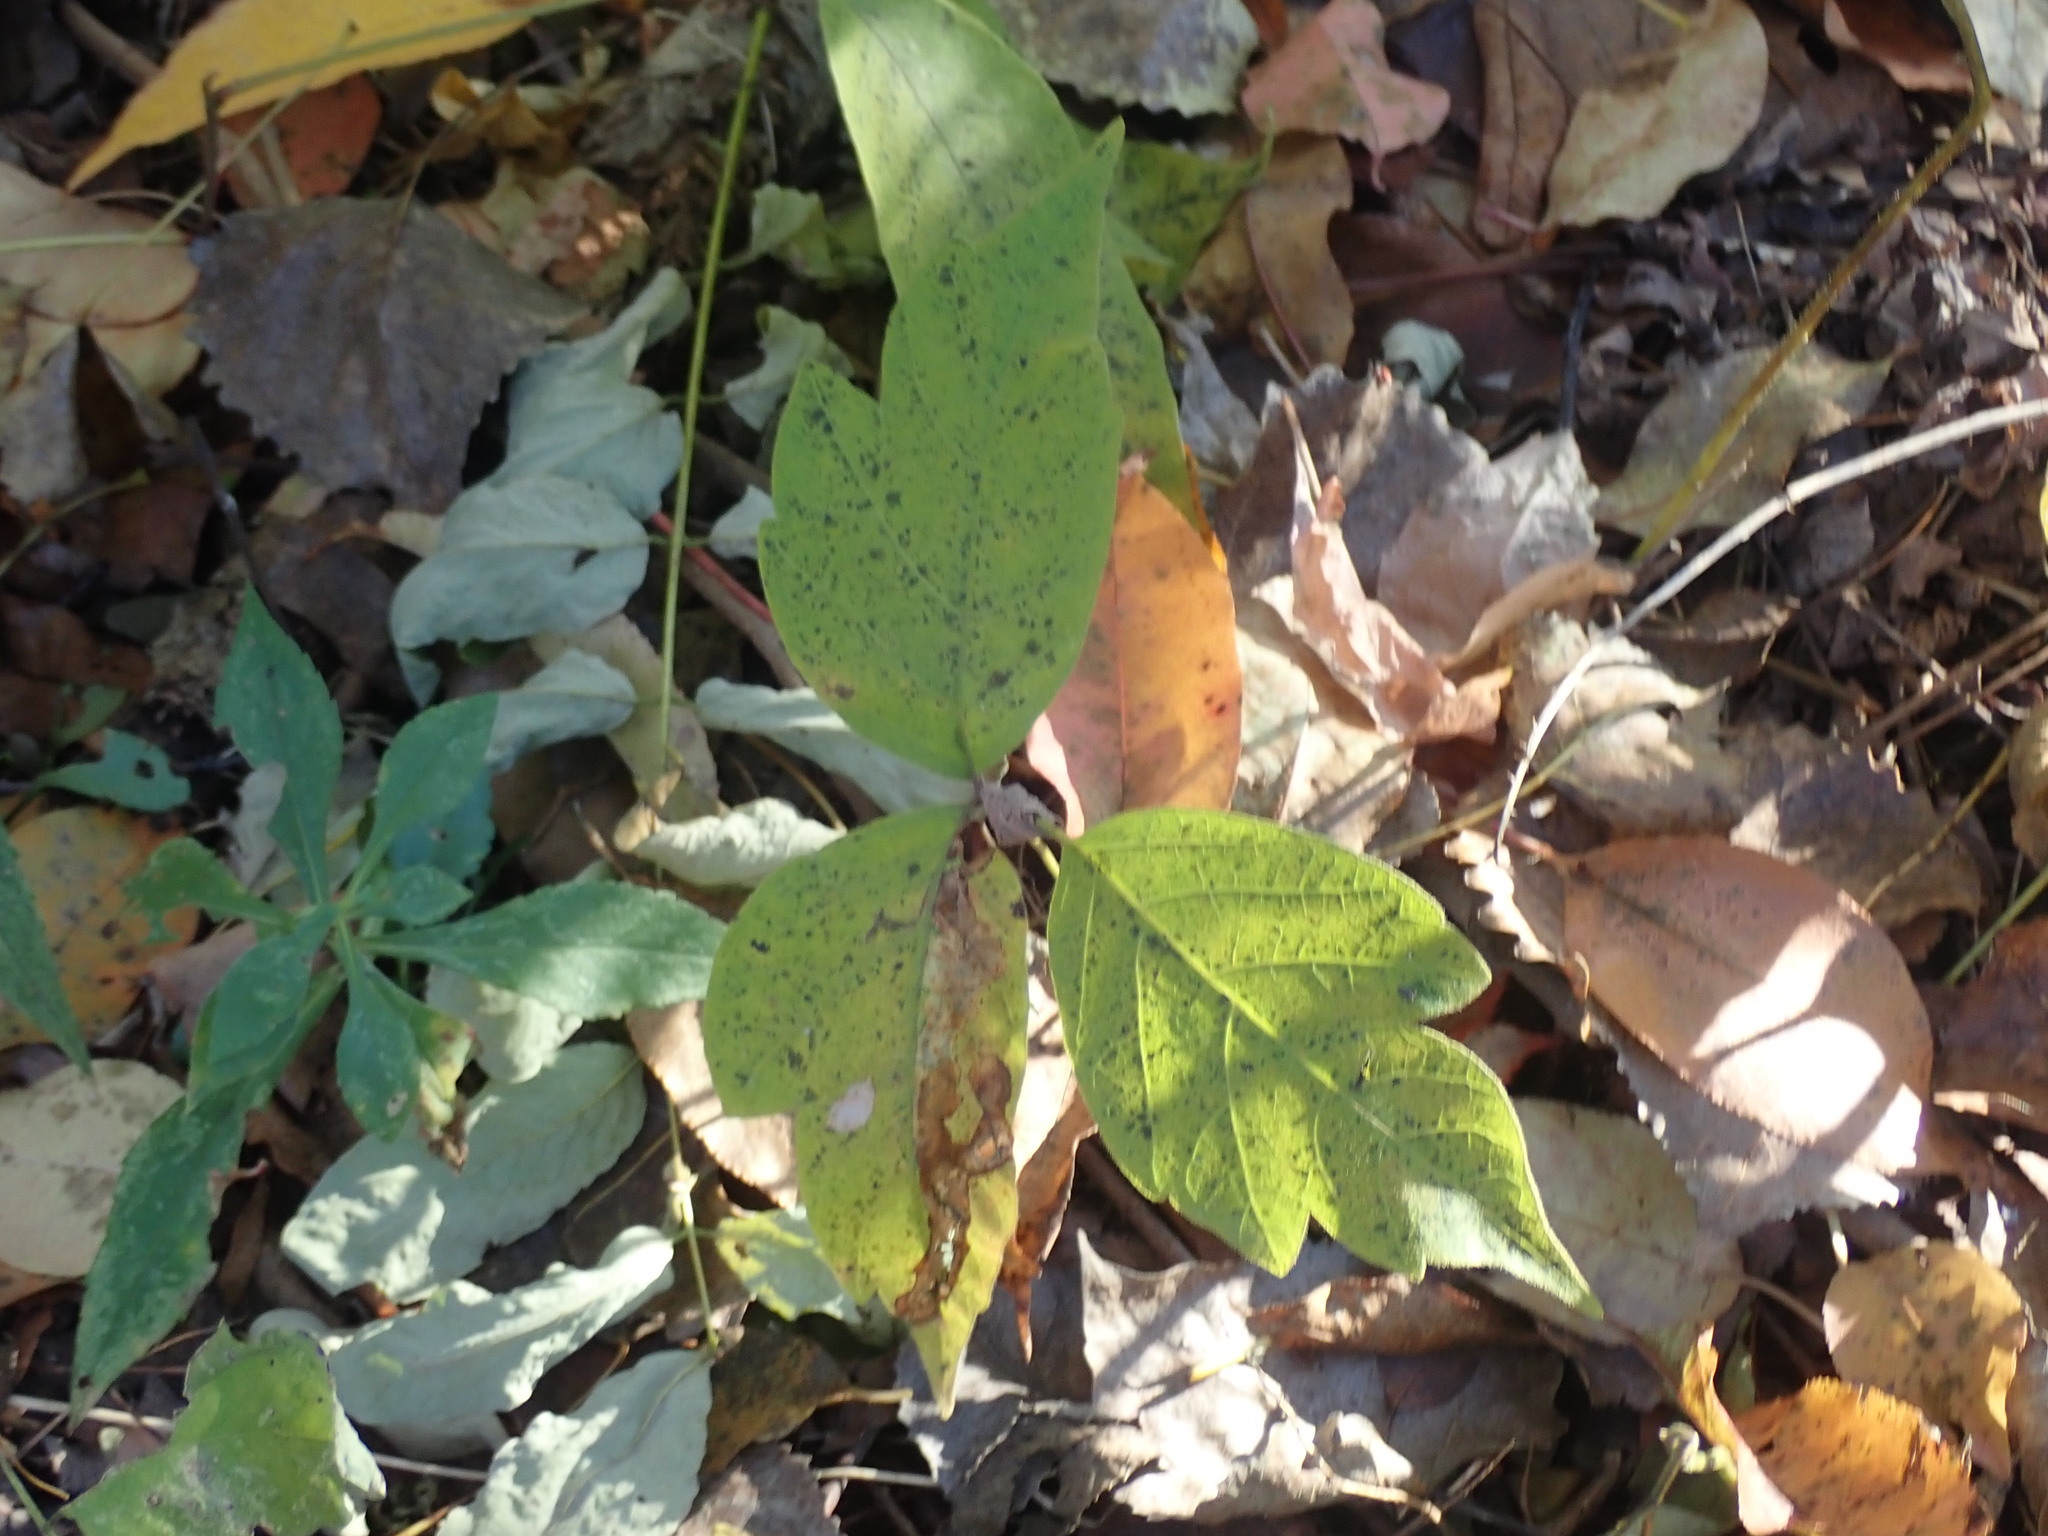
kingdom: Plantae
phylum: Tracheophyta
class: Magnoliopsida
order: Sapindales
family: Anacardiaceae
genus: Toxicodendron
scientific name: Toxicodendron radicans
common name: Poison ivy
